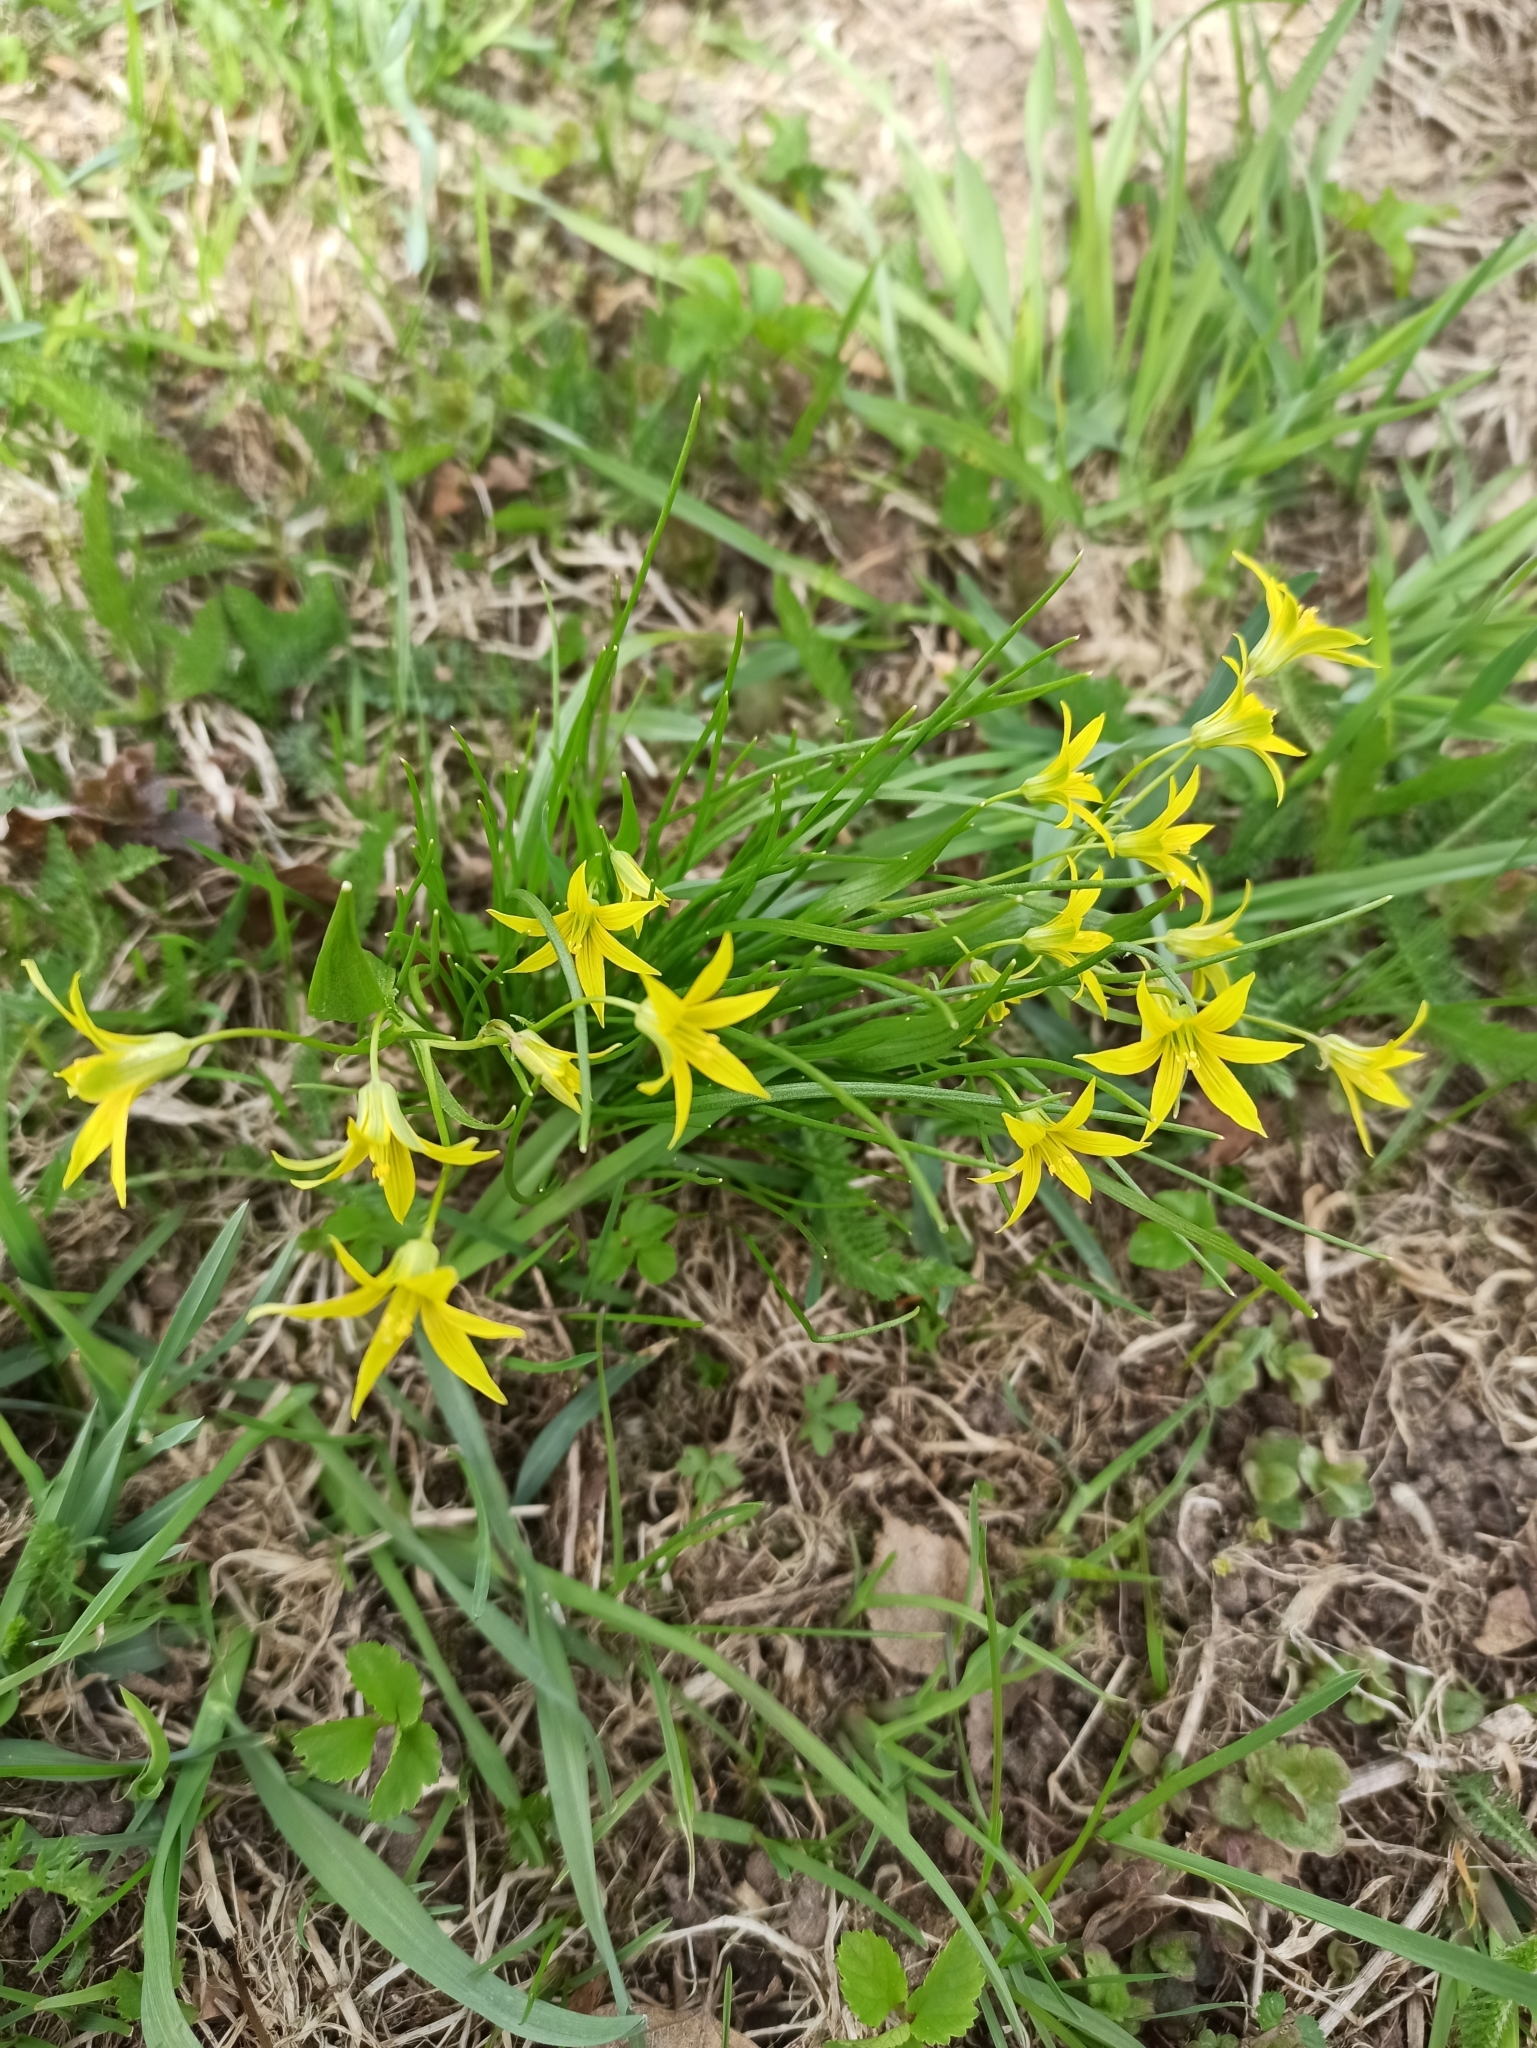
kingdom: Plantae
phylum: Tracheophyta
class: Liliopsida
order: Liliales
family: Liliaceae
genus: Gagea
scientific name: Gagea minima
